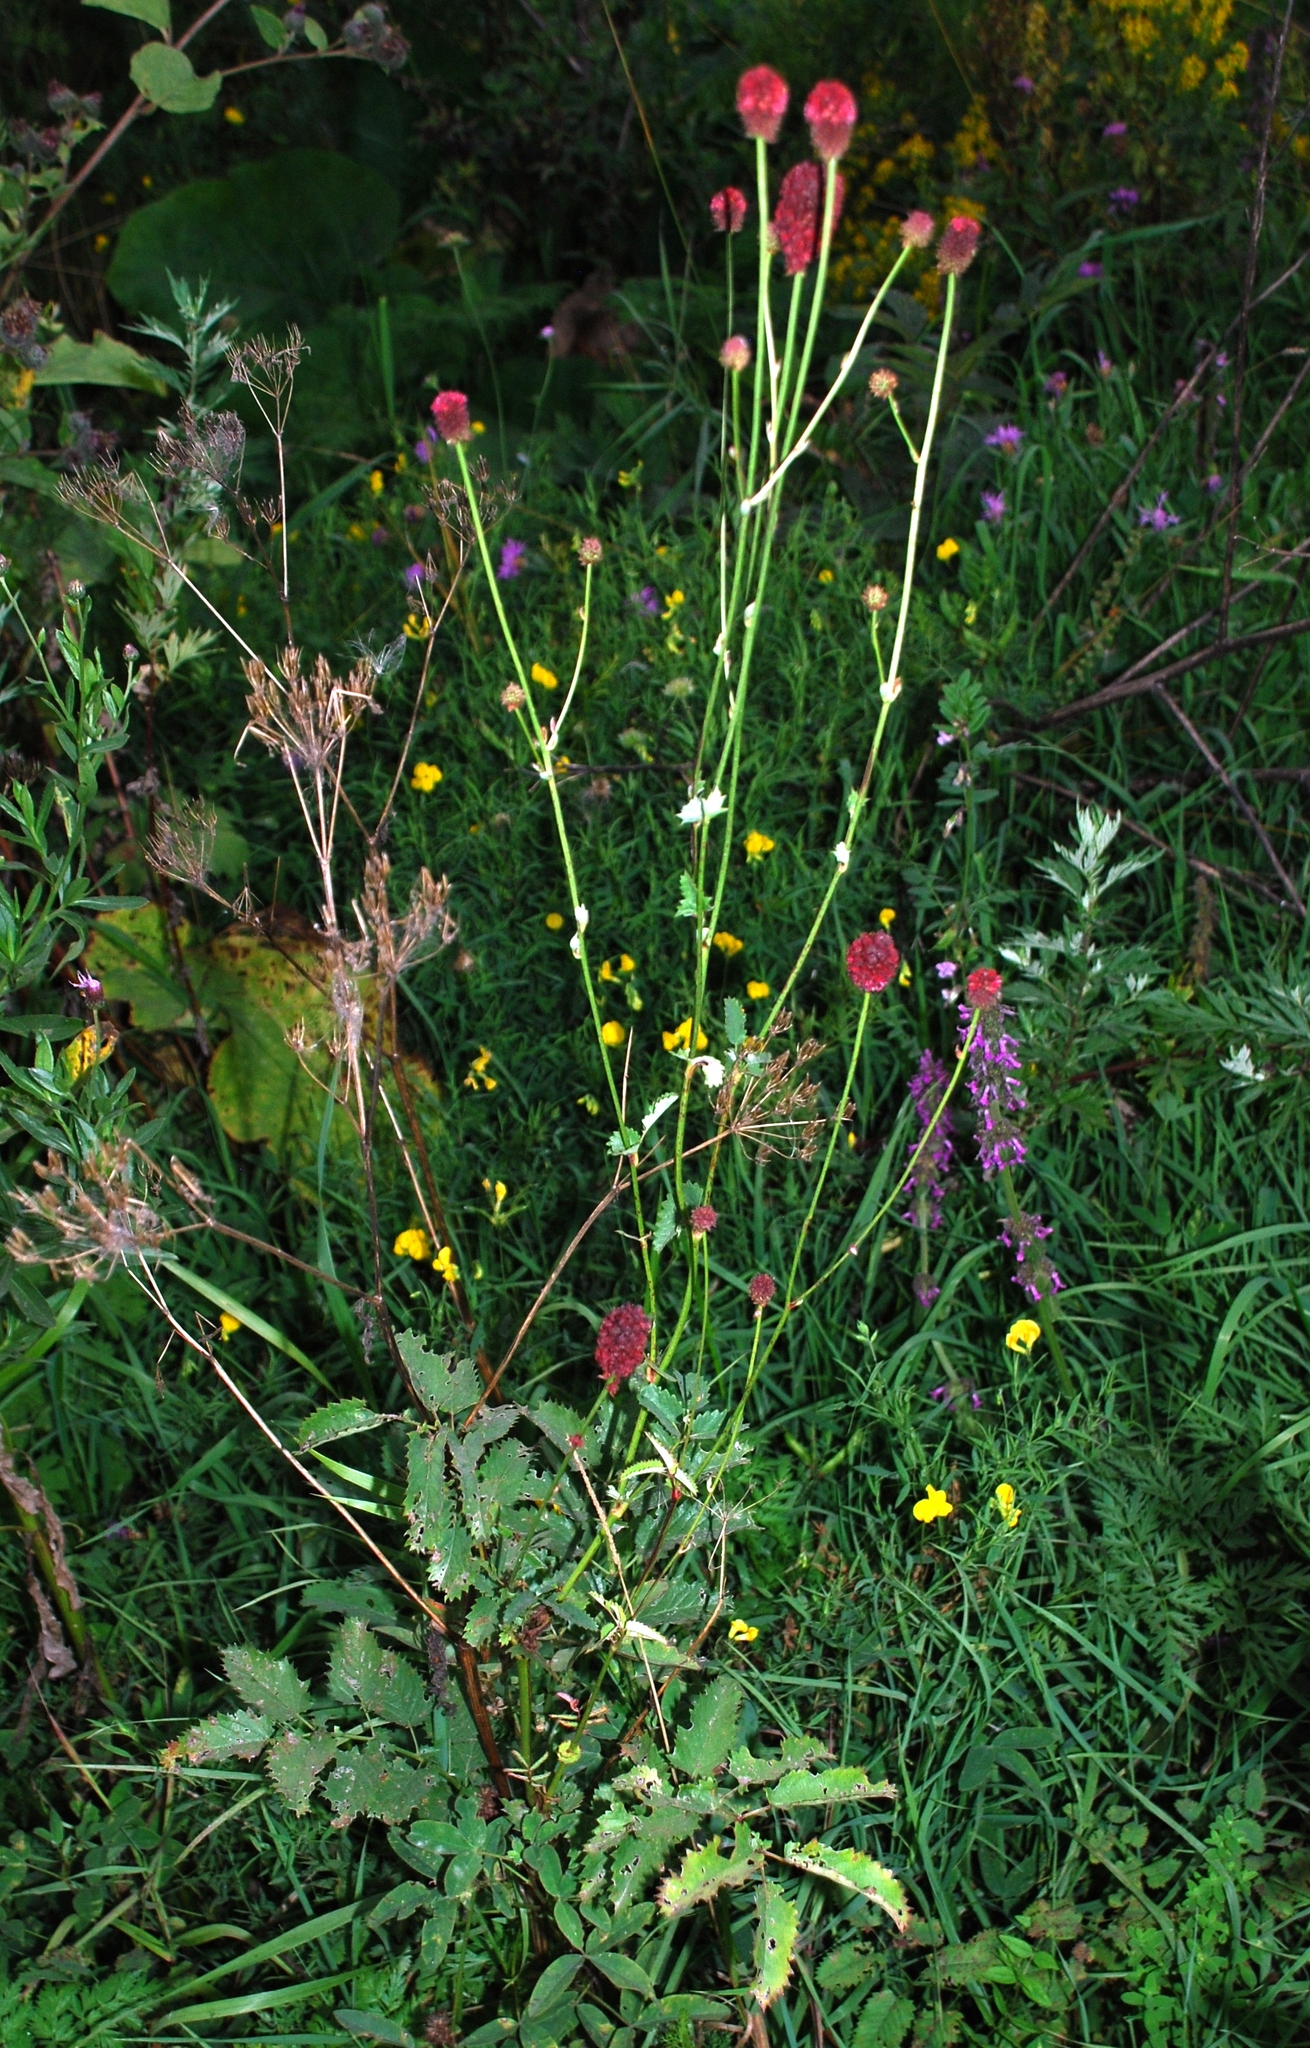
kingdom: Plantae
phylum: Tracheophyta
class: Magnoliopsida
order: Rosales
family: Rosaceae
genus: Sanguisorba
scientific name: Sanguisorba officinalis
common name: Great burnet
